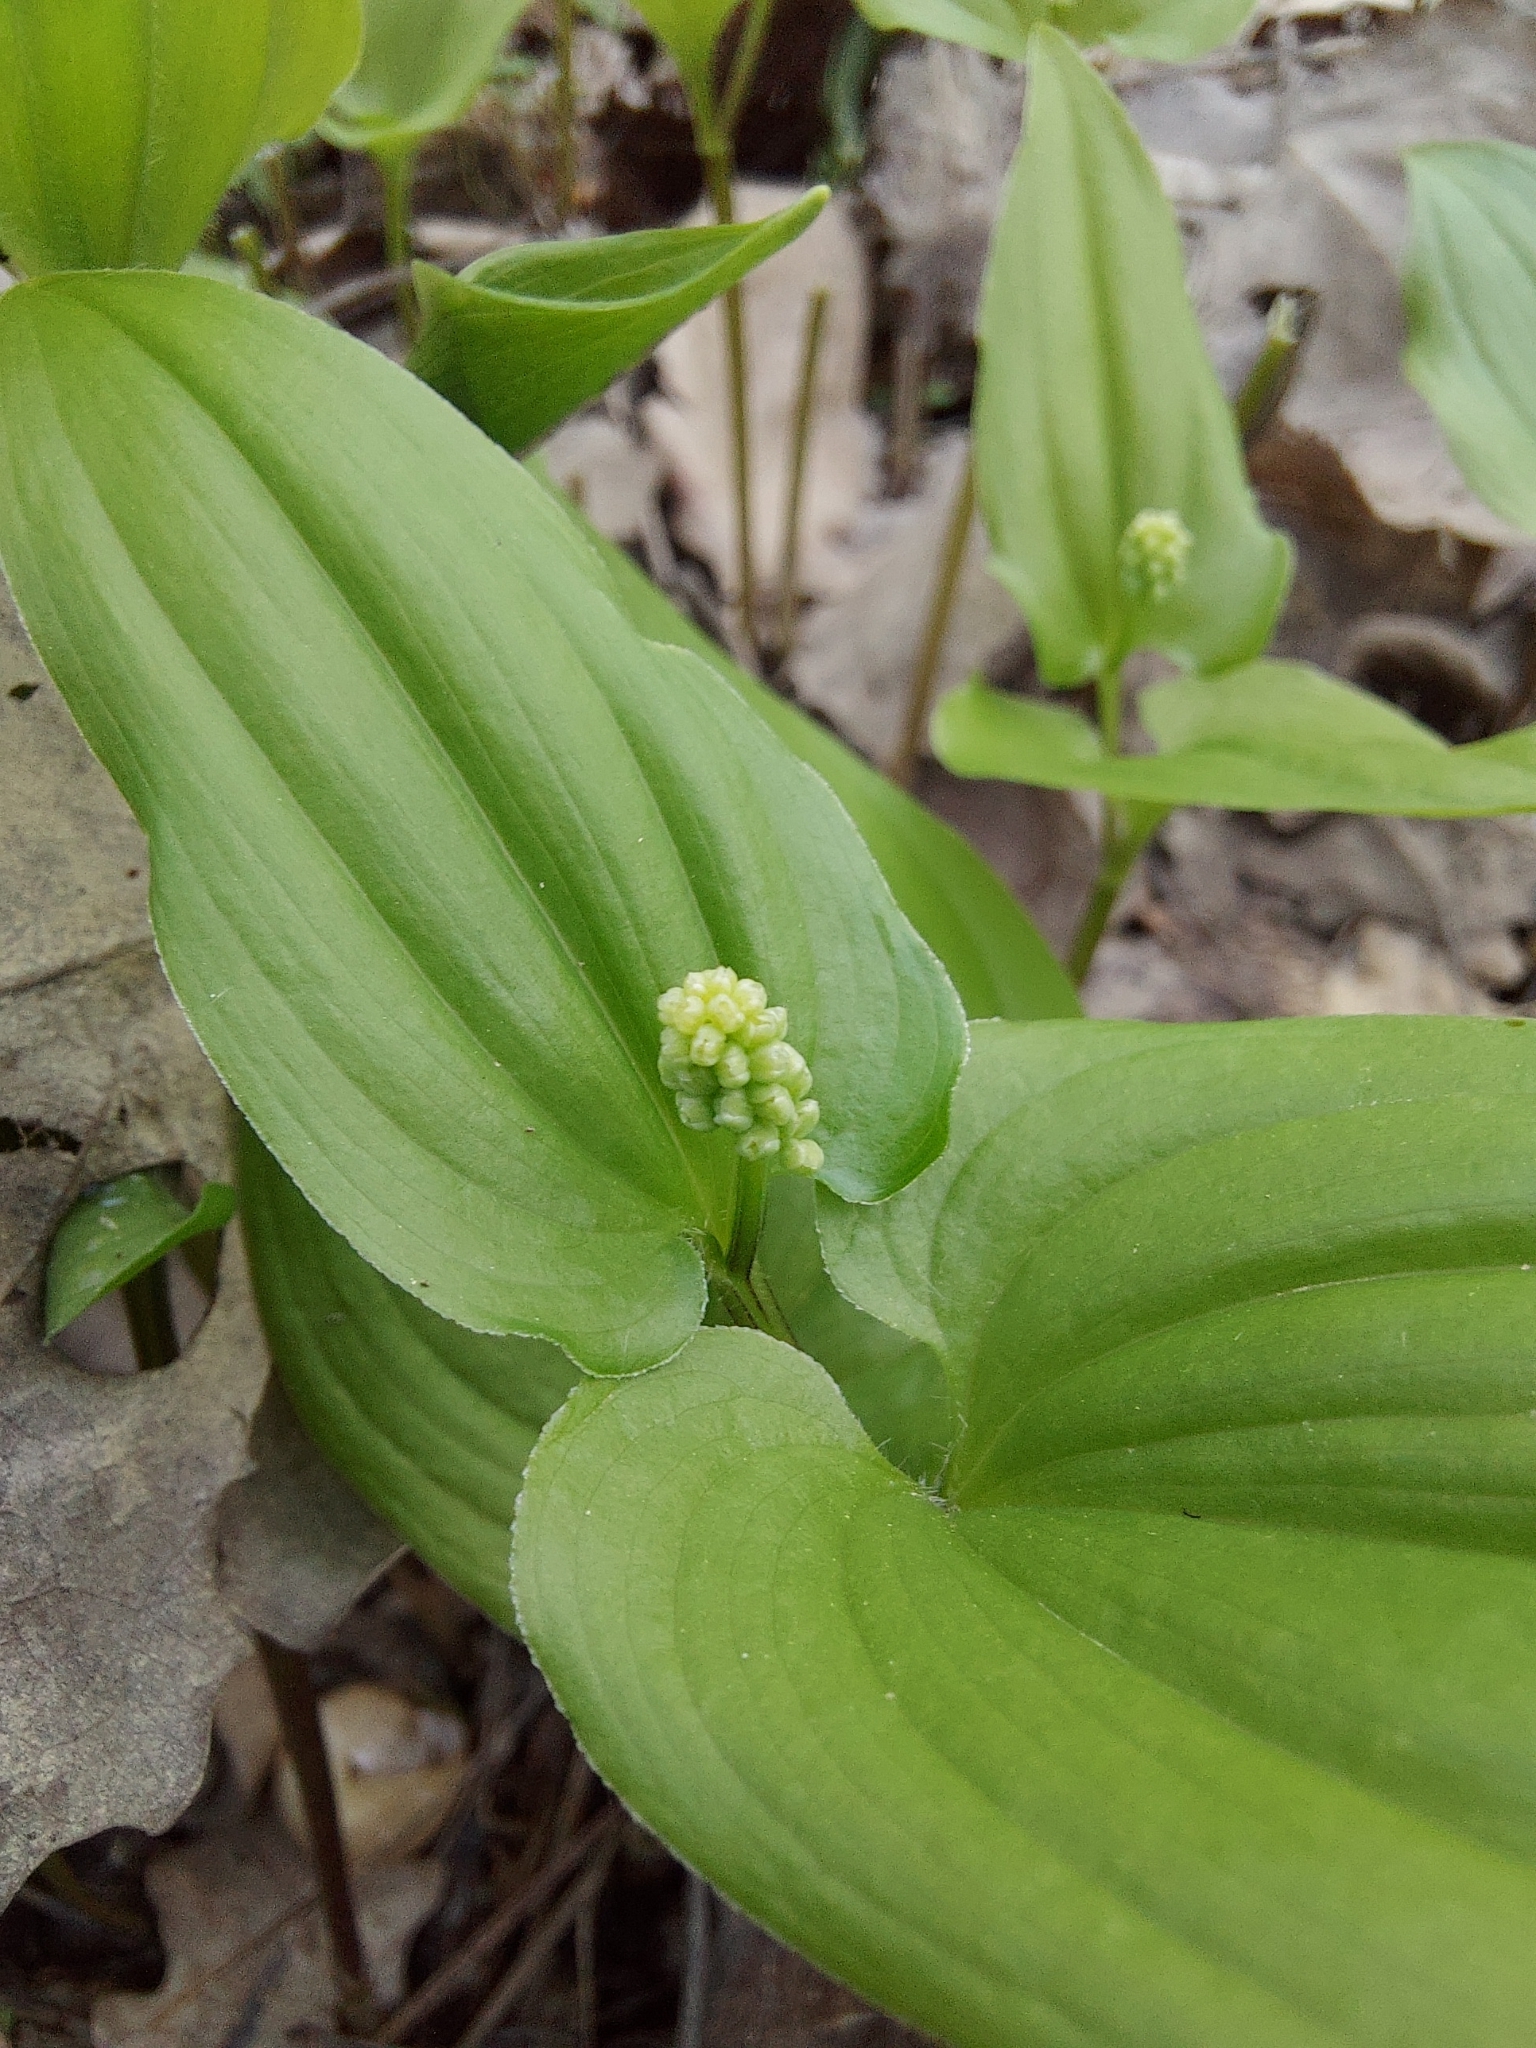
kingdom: Plantae
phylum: Tracheophyta
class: Liliopsida
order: Asparagales
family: Asparagaceae
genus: Maianthemum
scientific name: Maianthemum bifolium
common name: May lily
